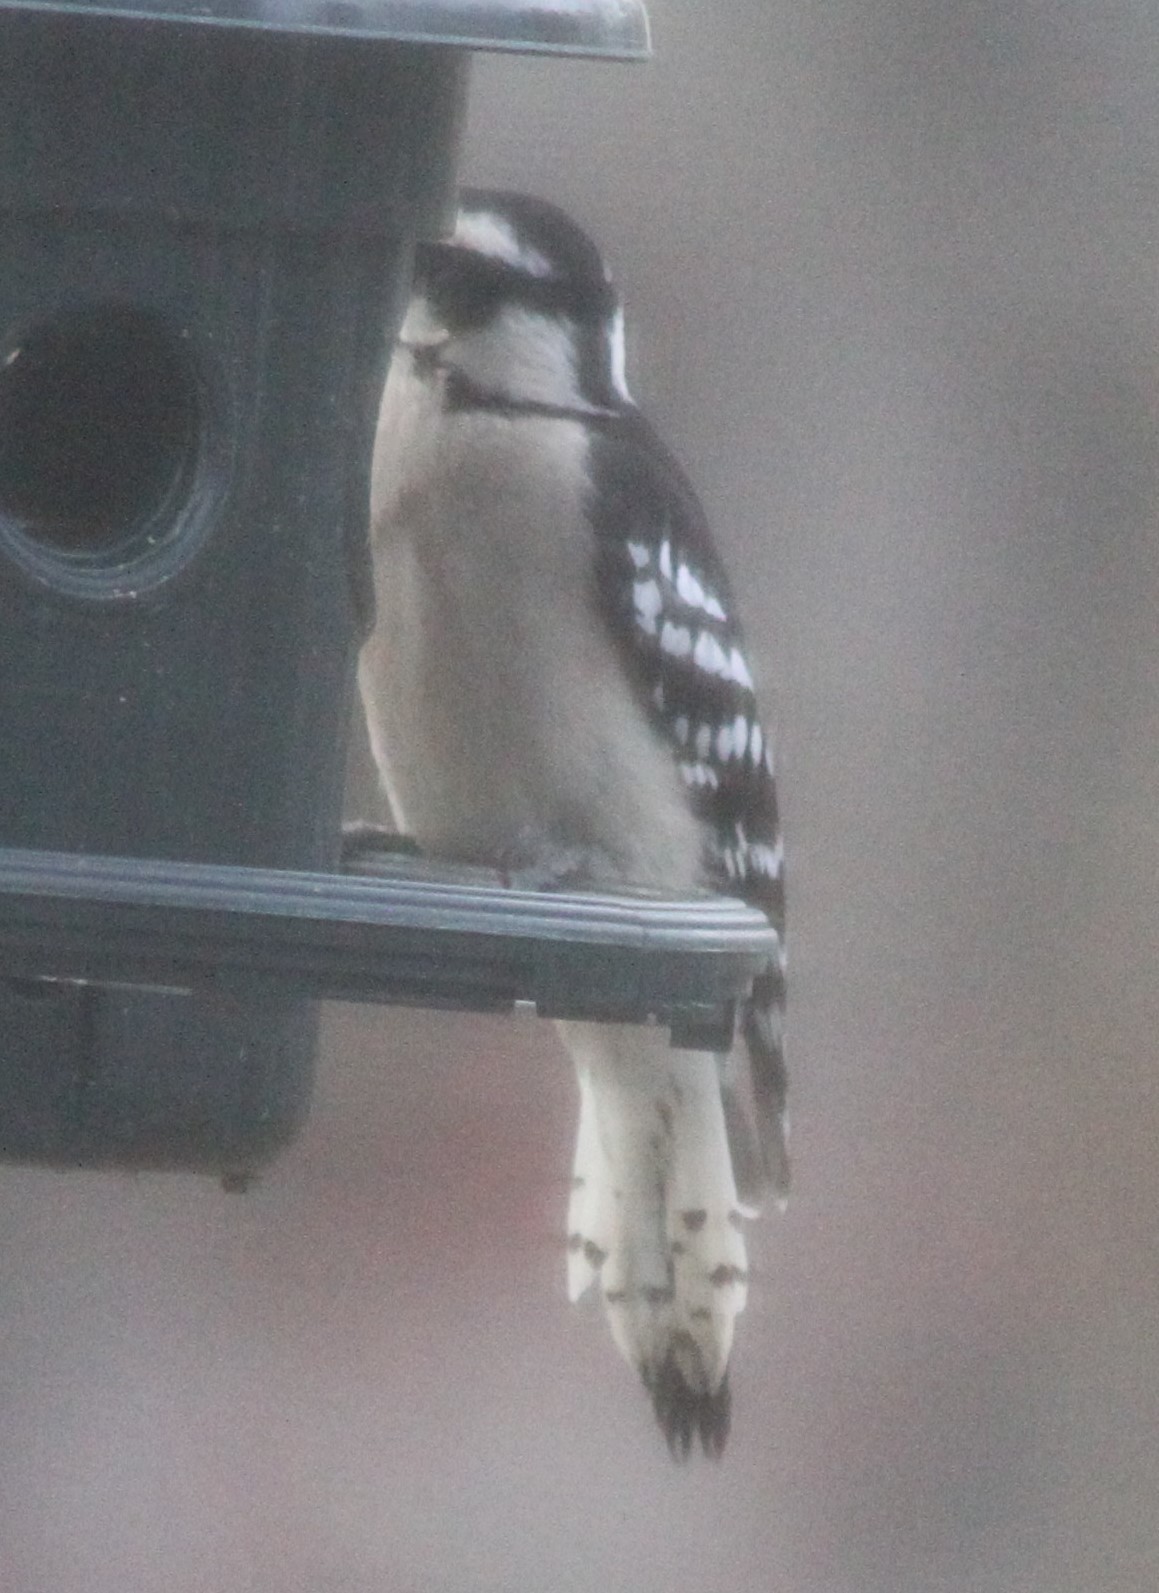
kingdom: Animalia
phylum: Chordata
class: Aves
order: Piciformes
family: Picidae
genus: Dryobates
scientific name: Dryobates pubescens
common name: Downy woodpecker
